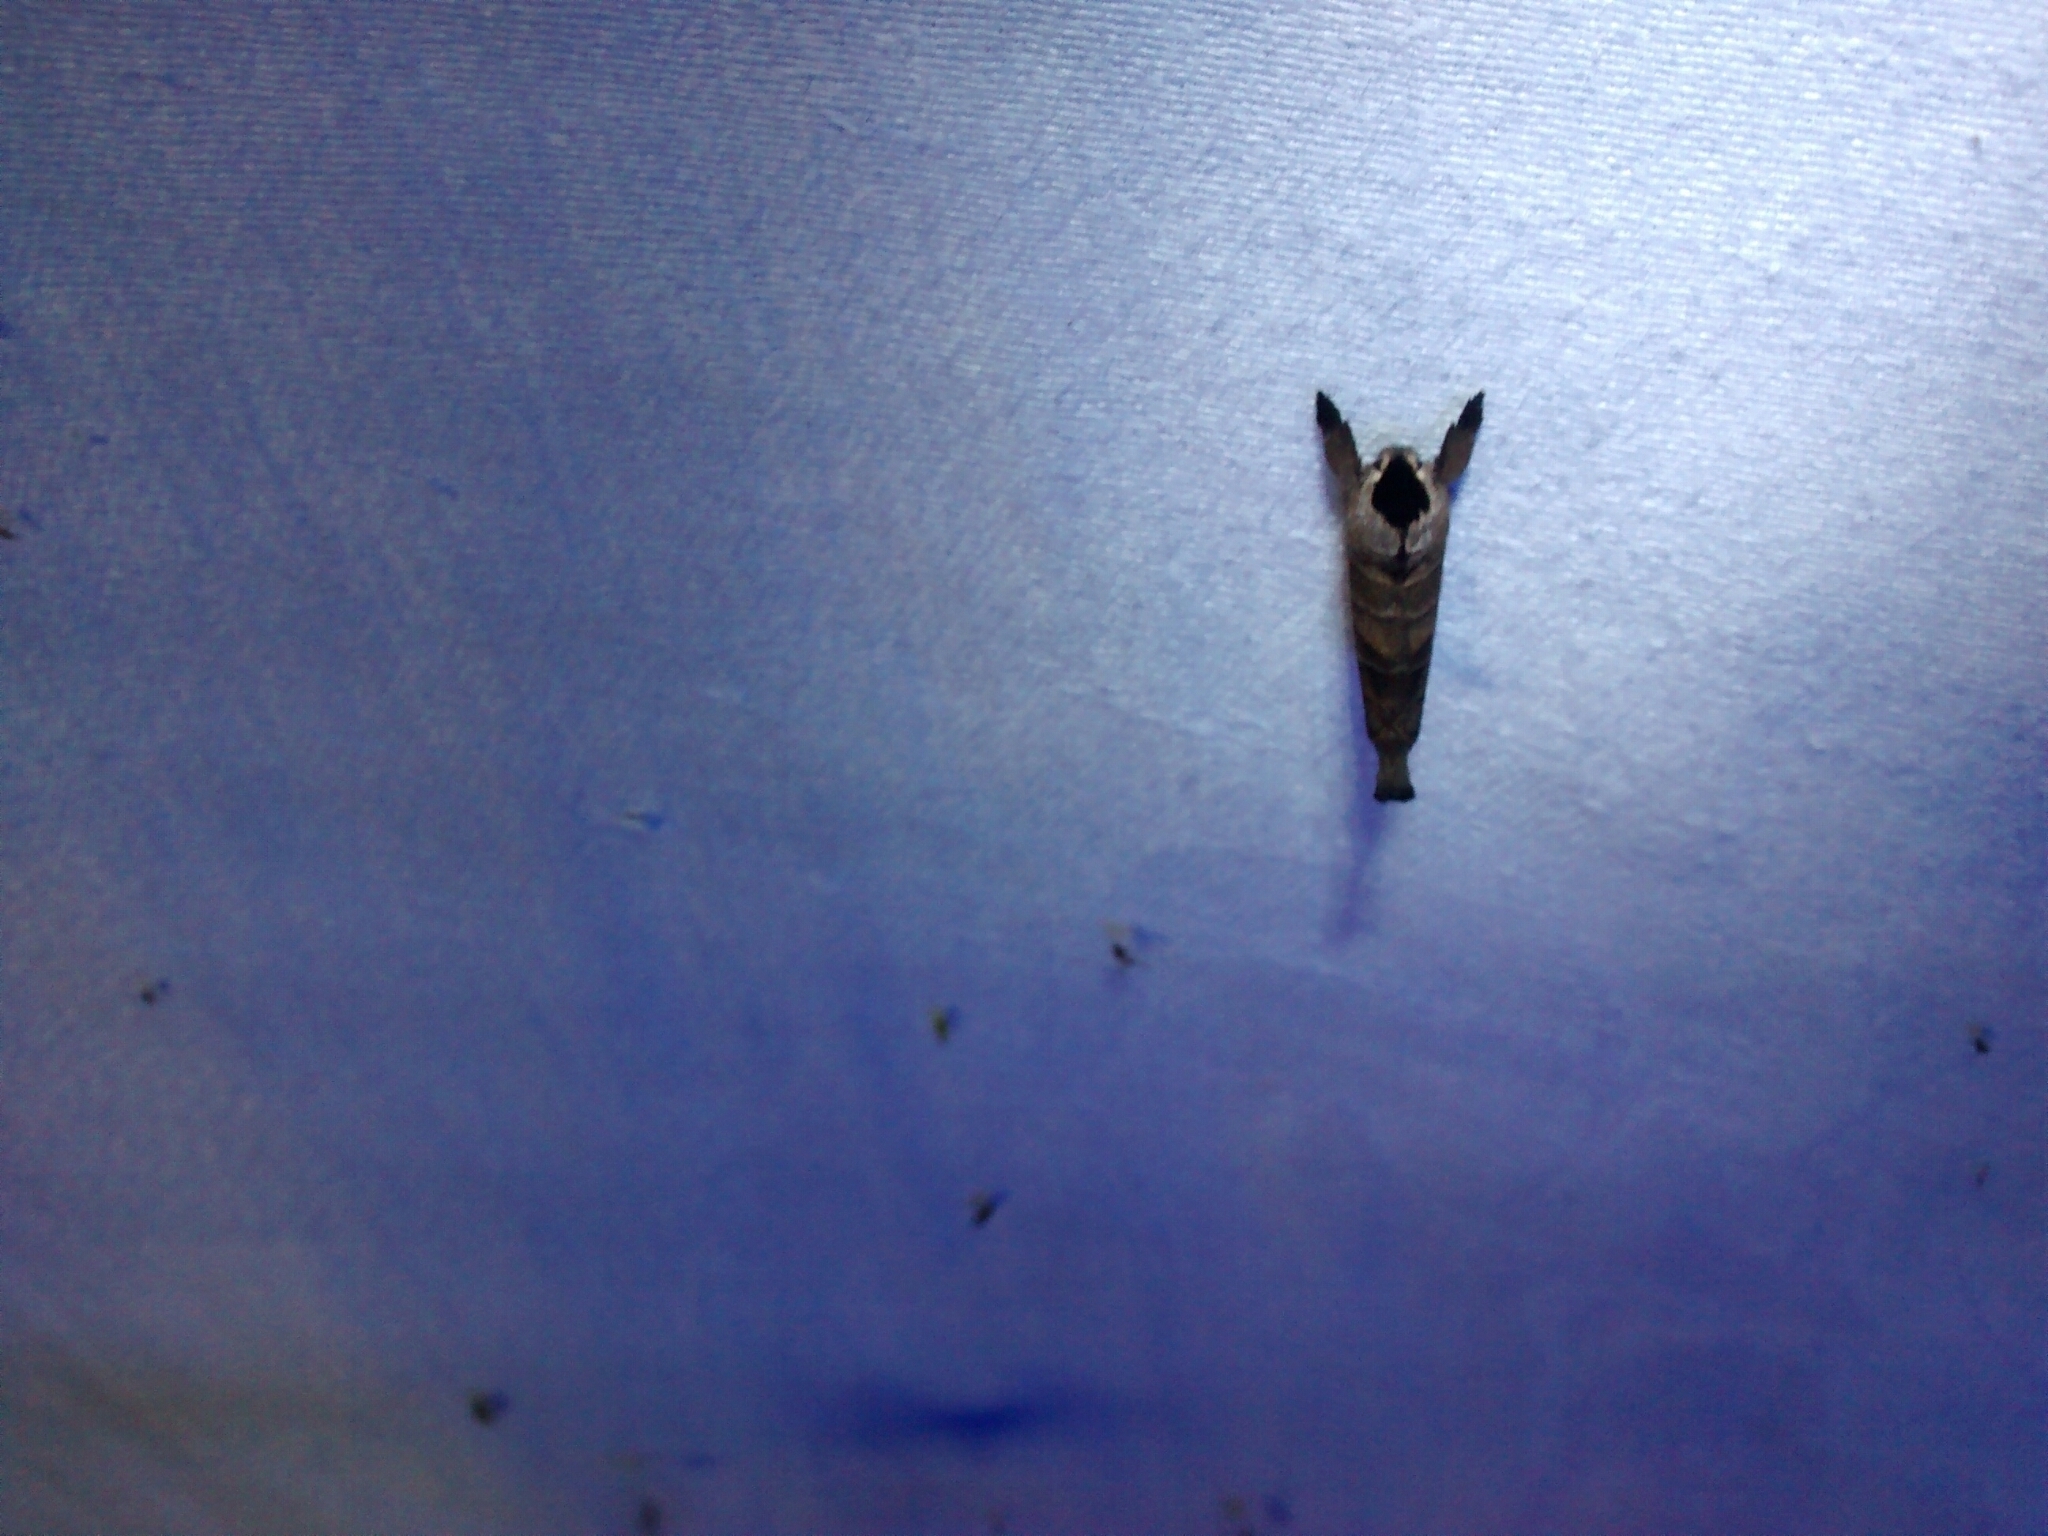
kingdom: Animalia
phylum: Arthropoda
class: Insecta
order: Lepidoptera
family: Notodontidae
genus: Clostera
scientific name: Clostera albosigma
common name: Sigmoid prominent
